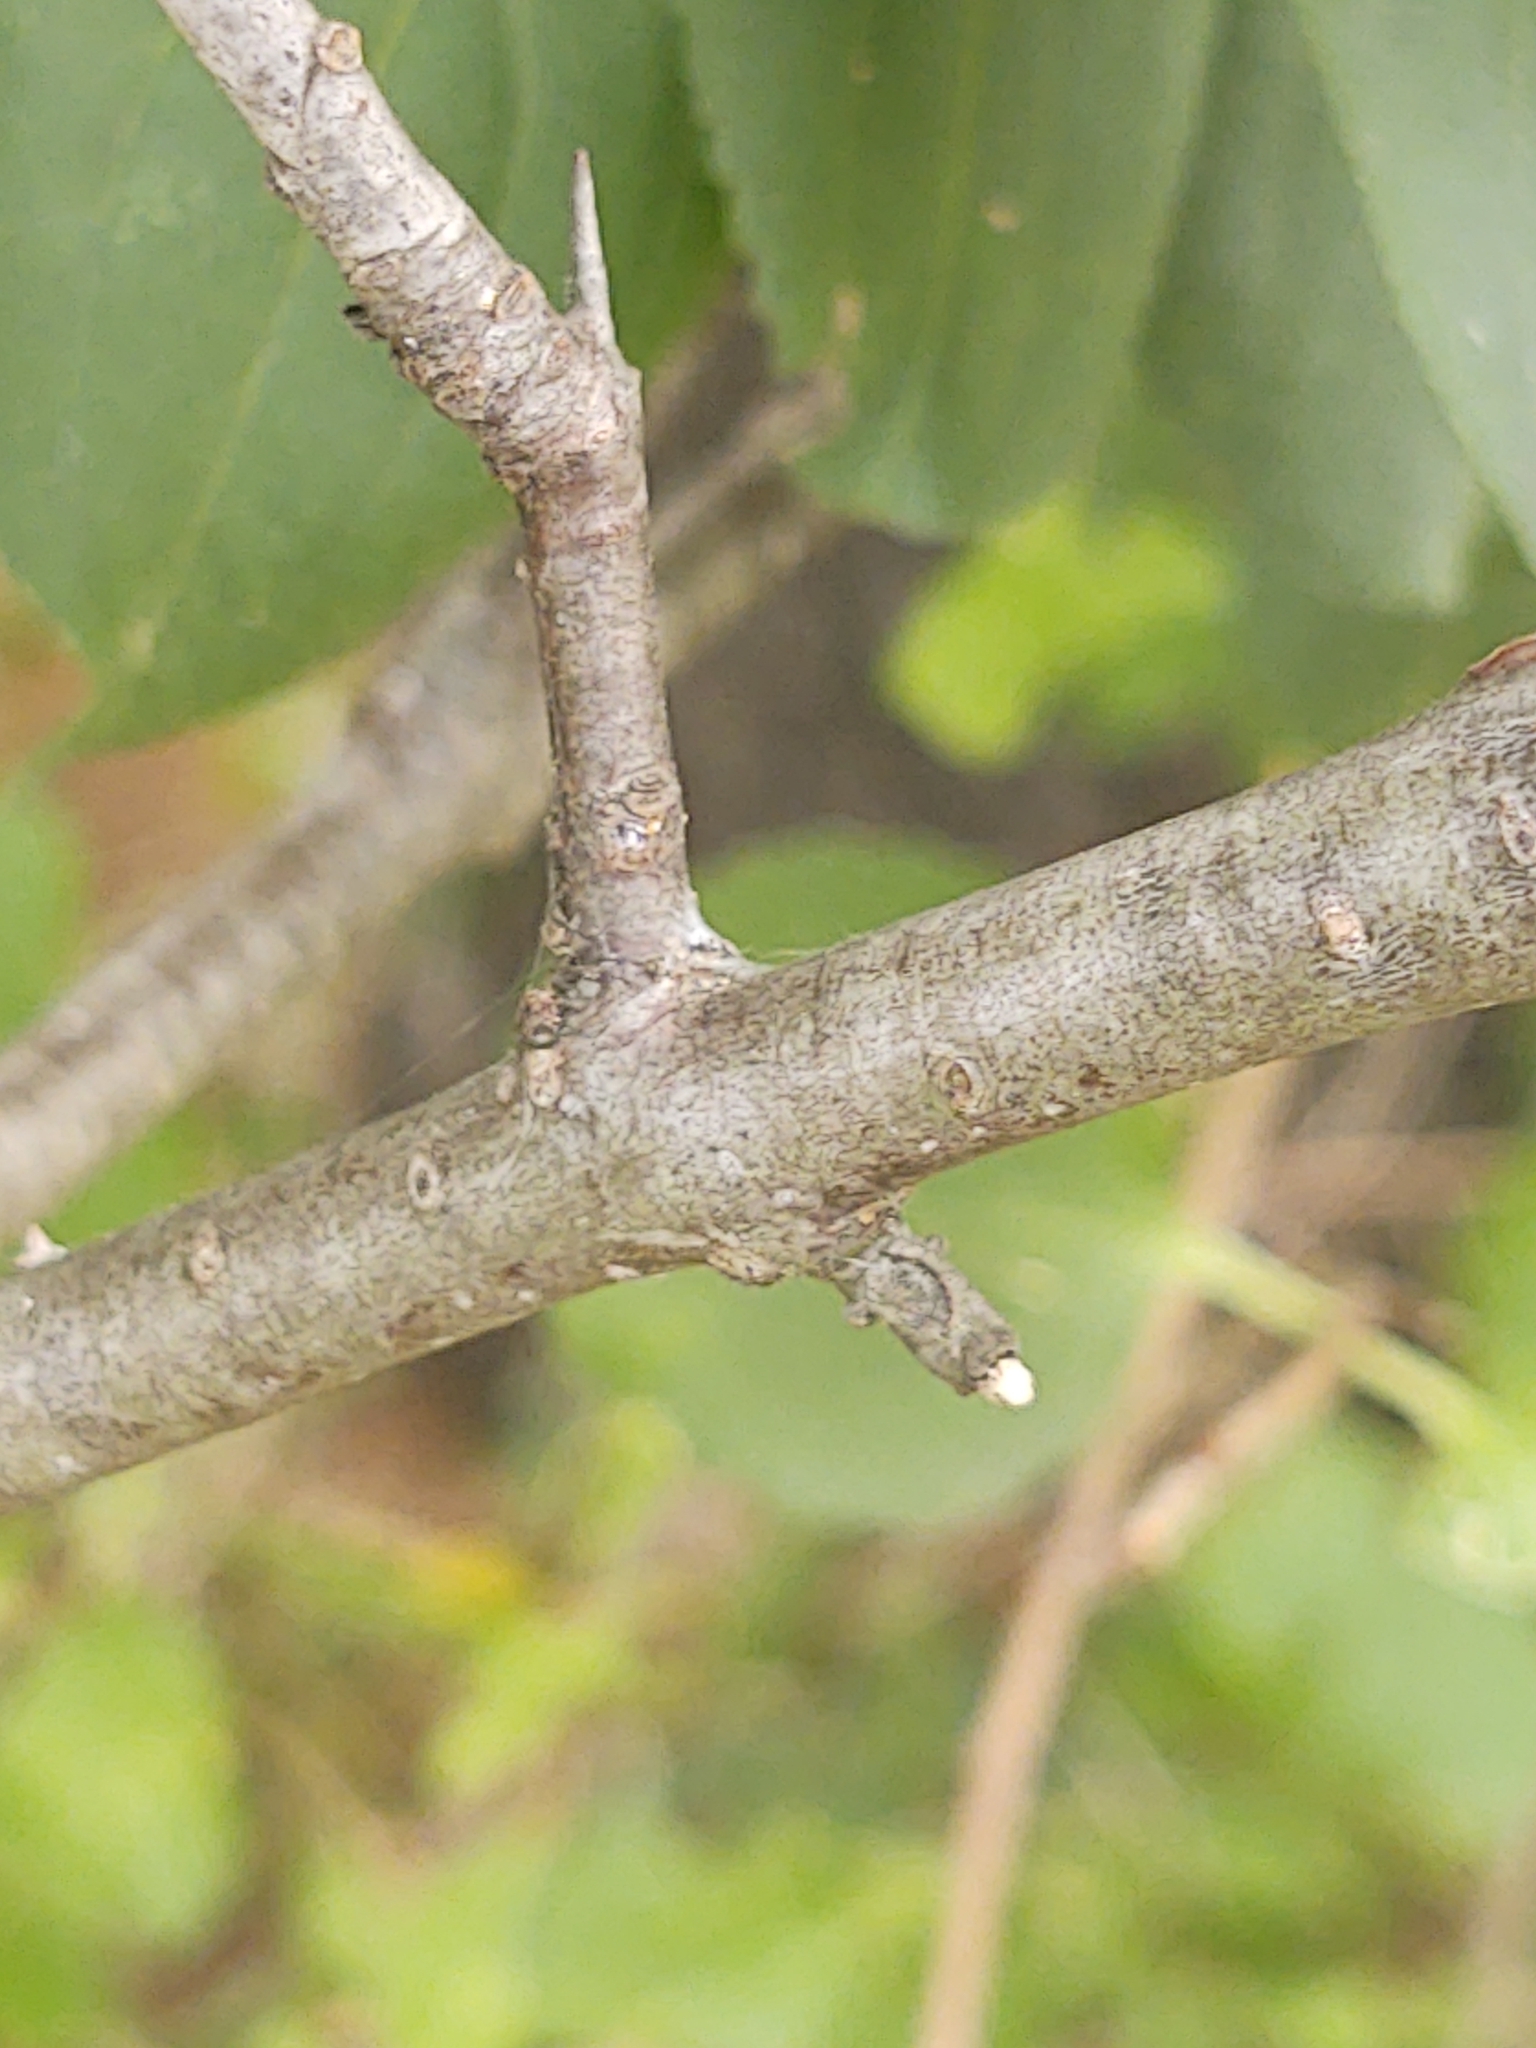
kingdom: Plantae
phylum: Tracheophyta
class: Magnoliopsida
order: Rosales
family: Rhamnaceae
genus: Rhamnus
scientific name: Rhamnus cathartica
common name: Common buckthorn
